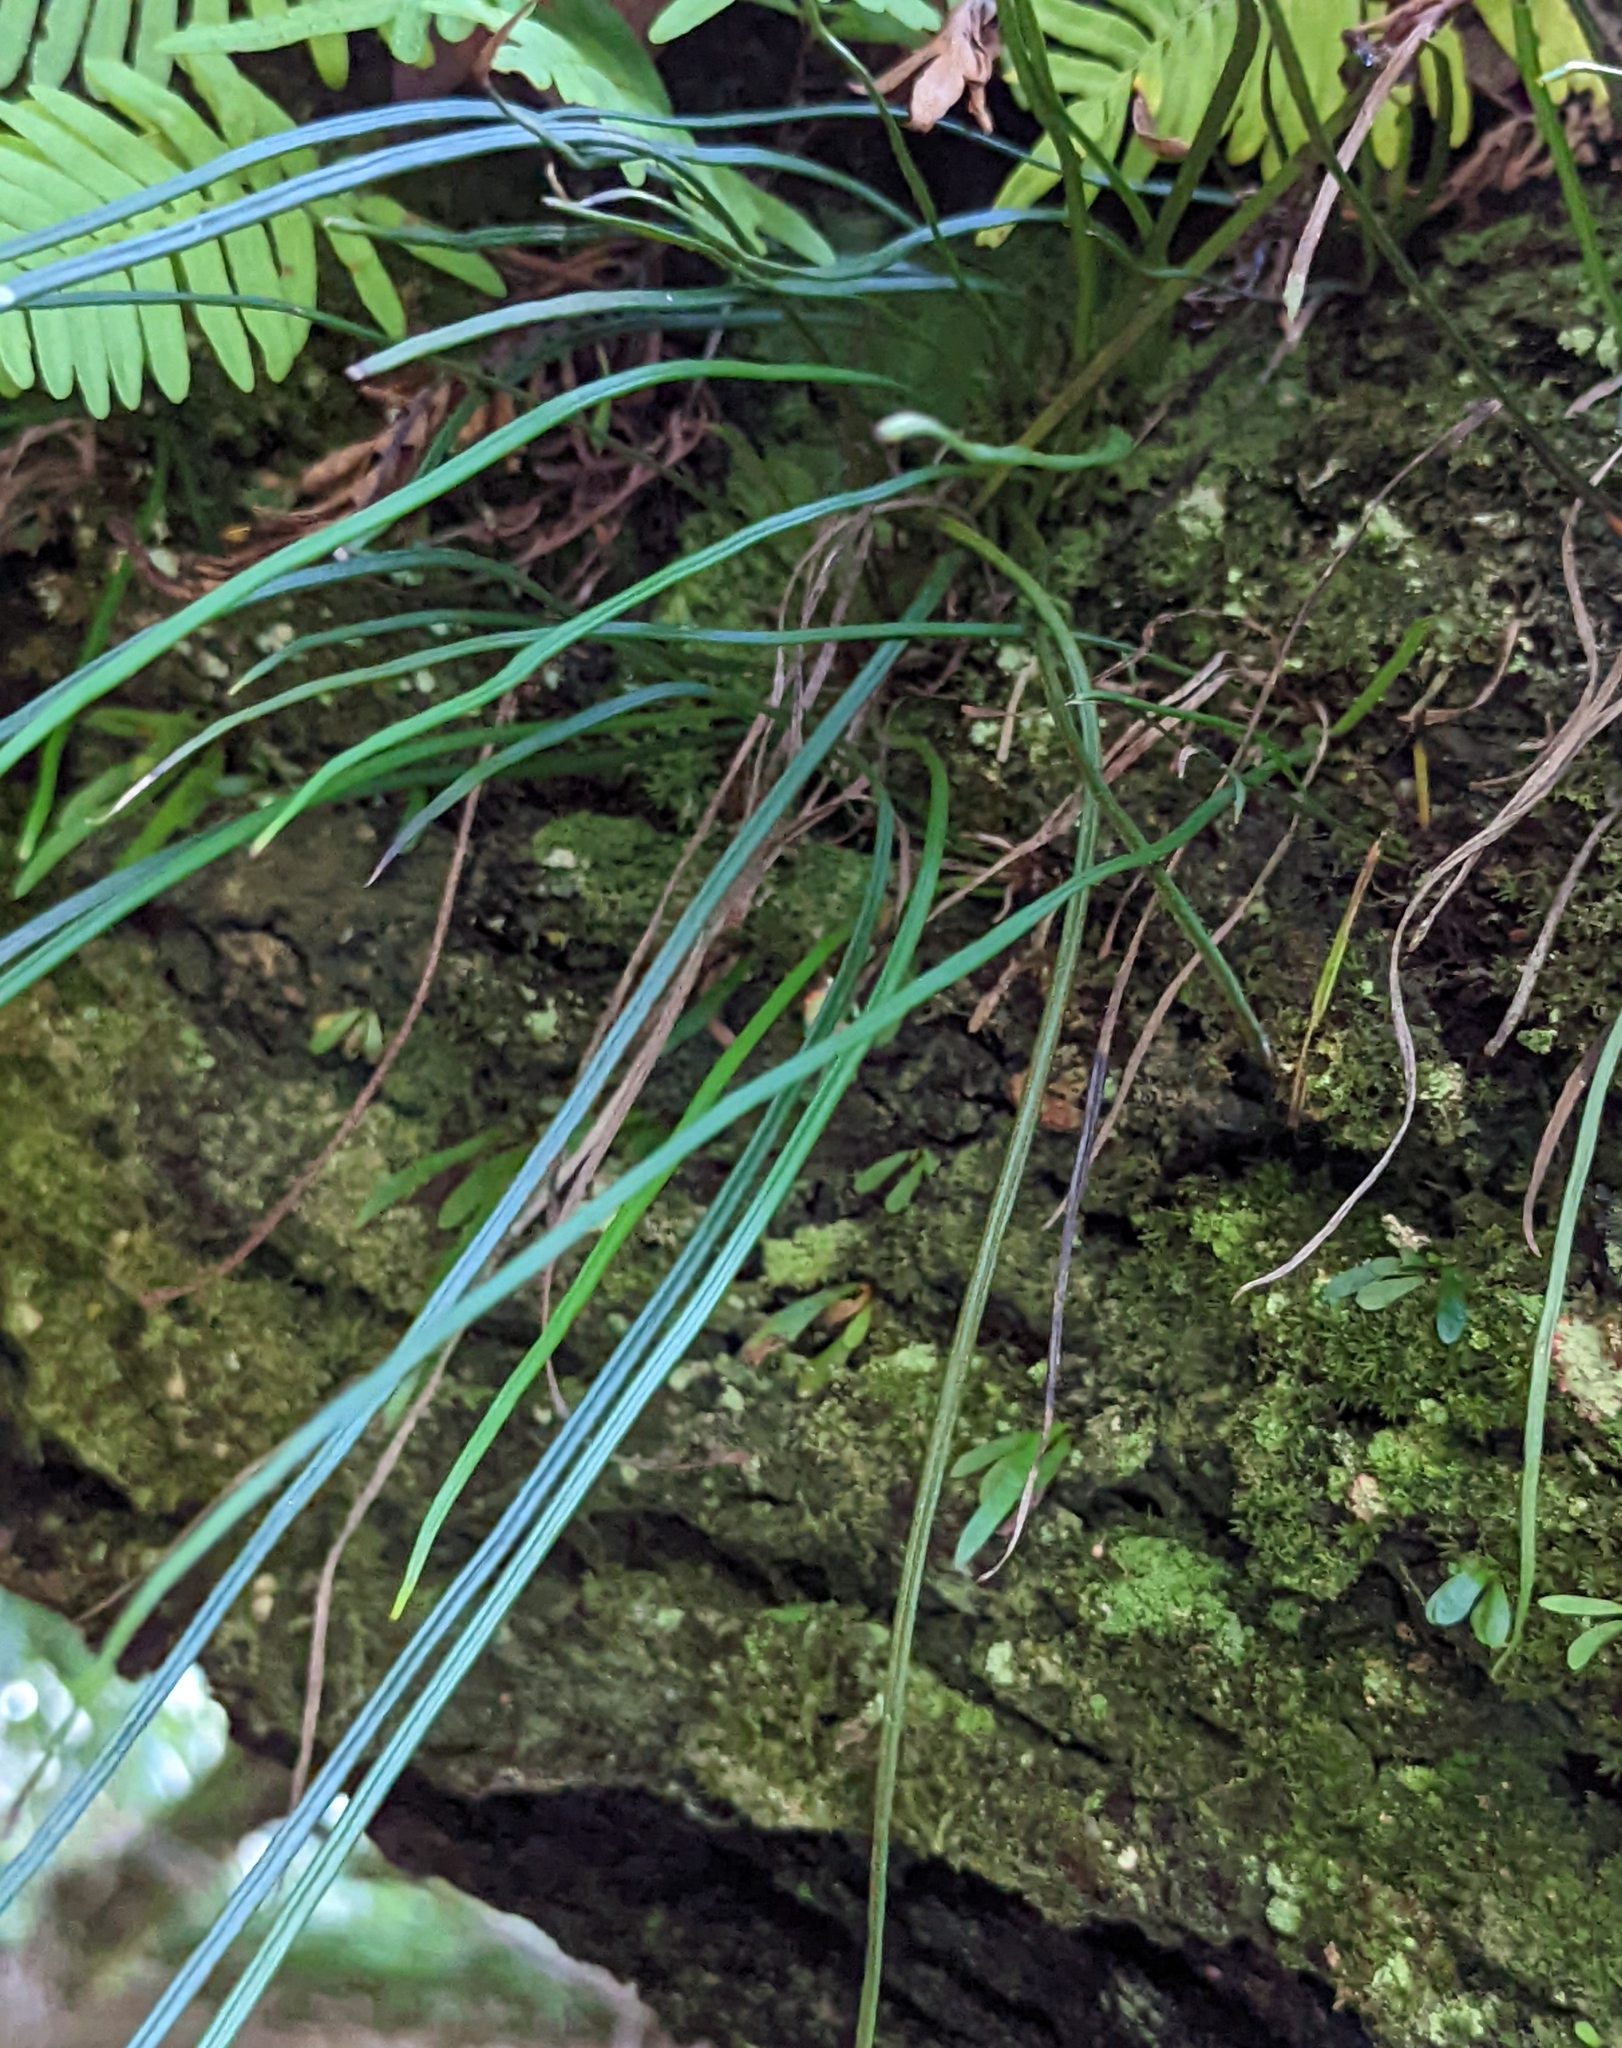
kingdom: Plantae
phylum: Tracheophyta
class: Polypodiopsida
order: Polypodiales
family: Pteridaceae
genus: Vittaria
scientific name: Vittaria lineata
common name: Shoestring fern
